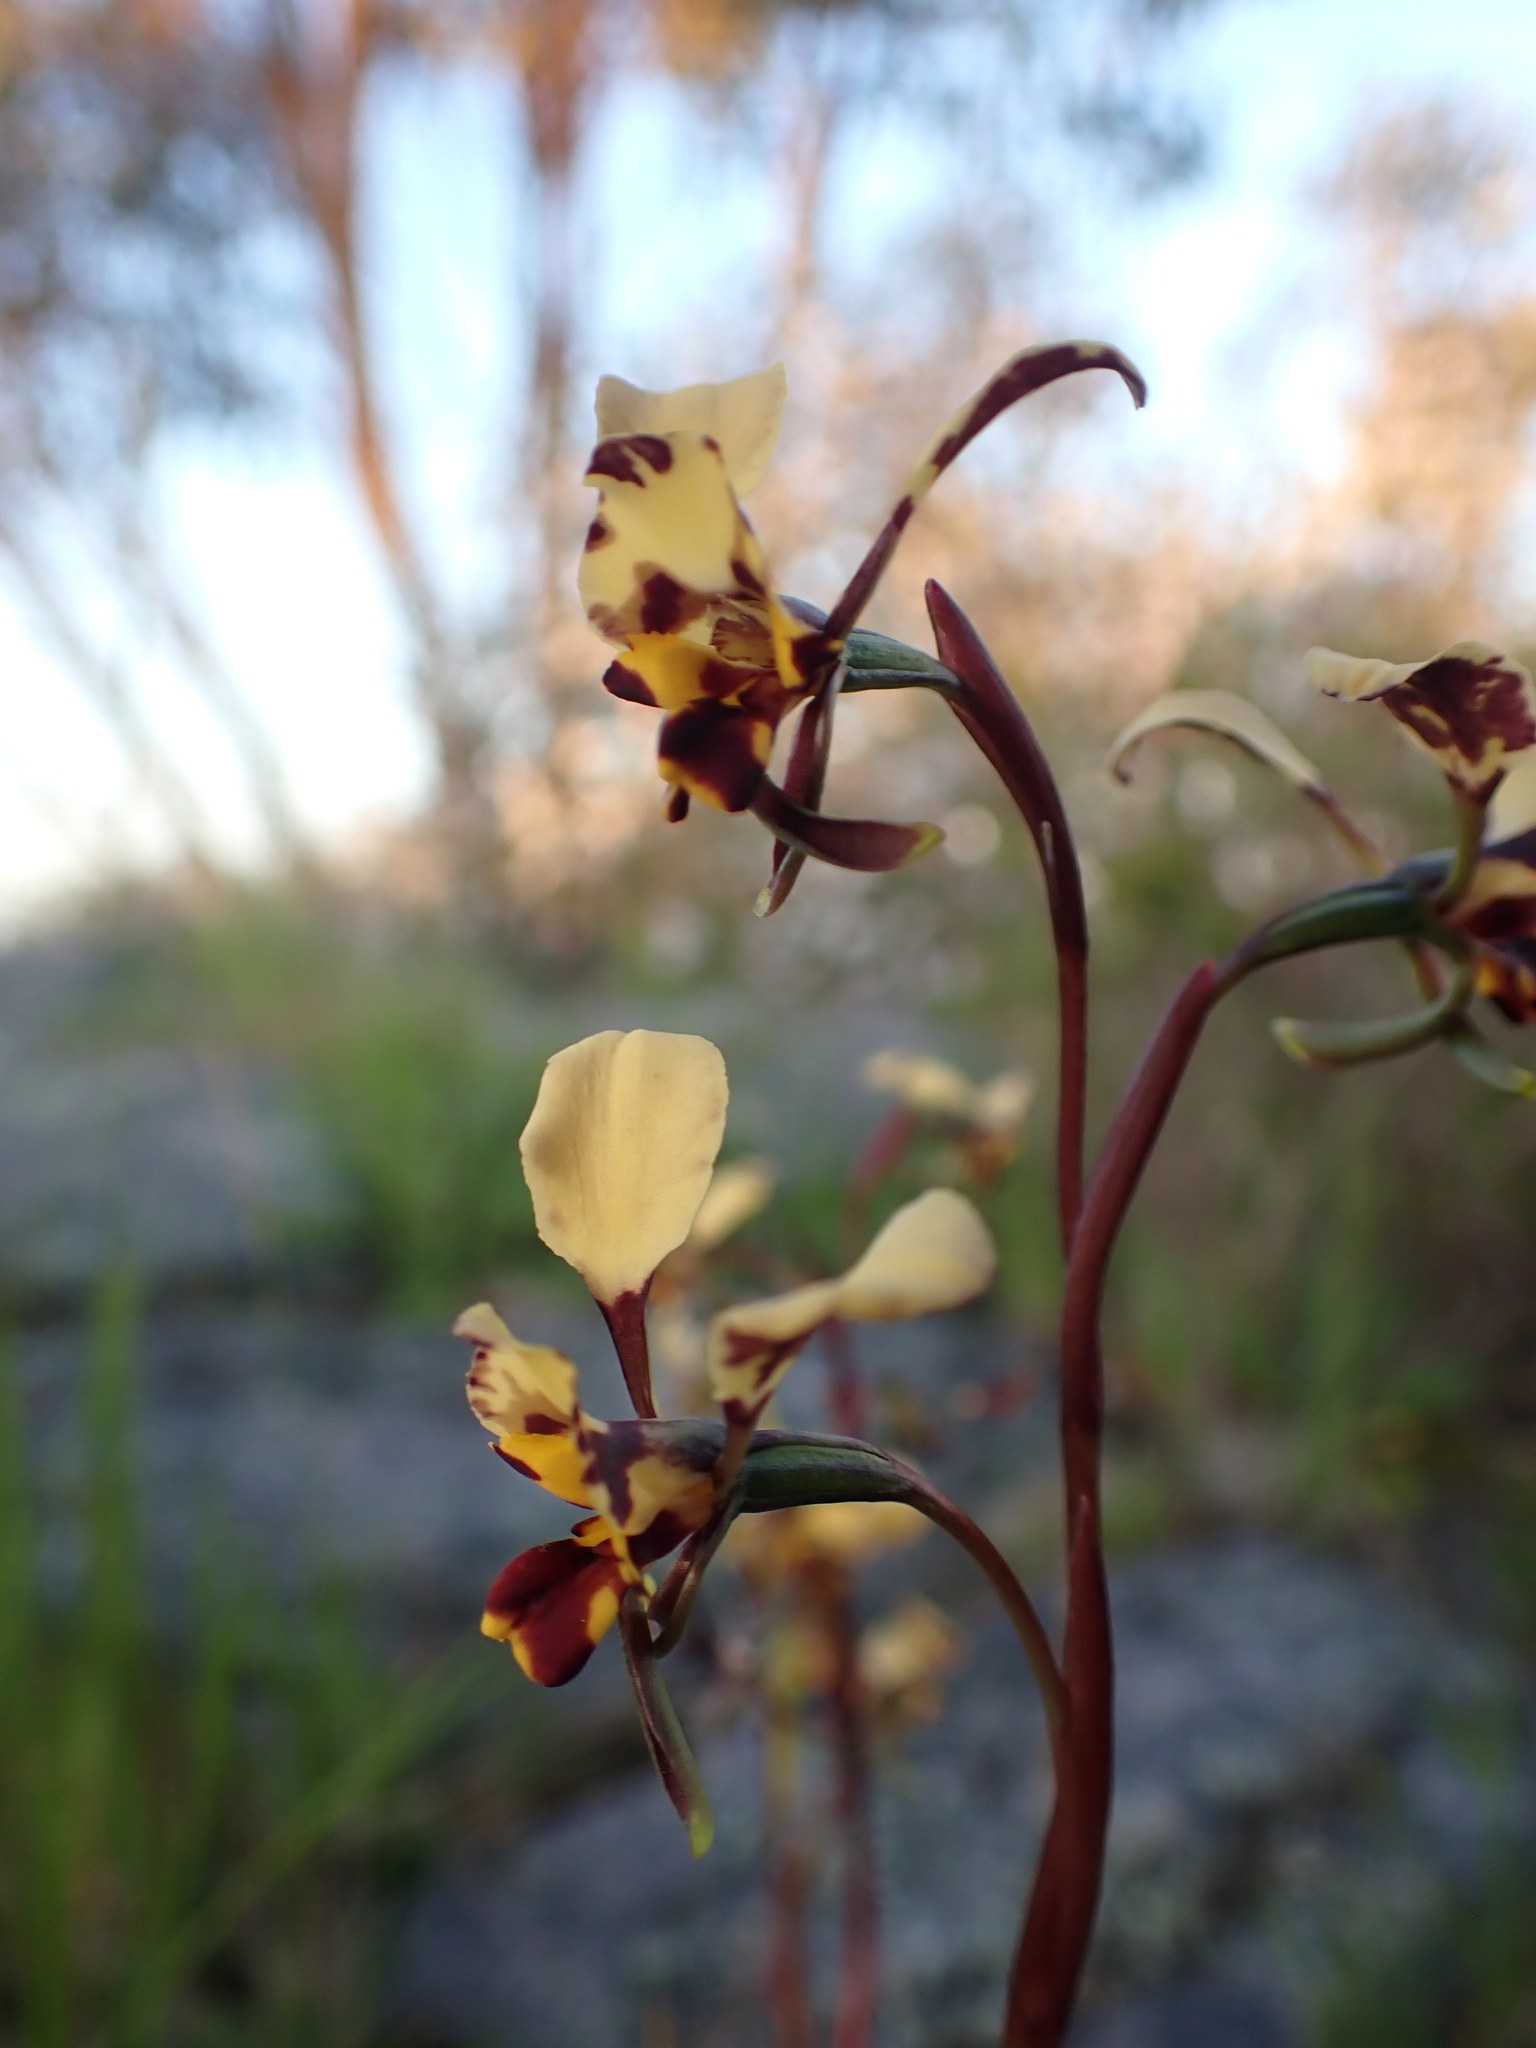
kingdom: Plantae
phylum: Tracheophyta
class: Liliopsida
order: Asparagales
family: Orchidaceae
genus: Diuris
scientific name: Diuris pardina
